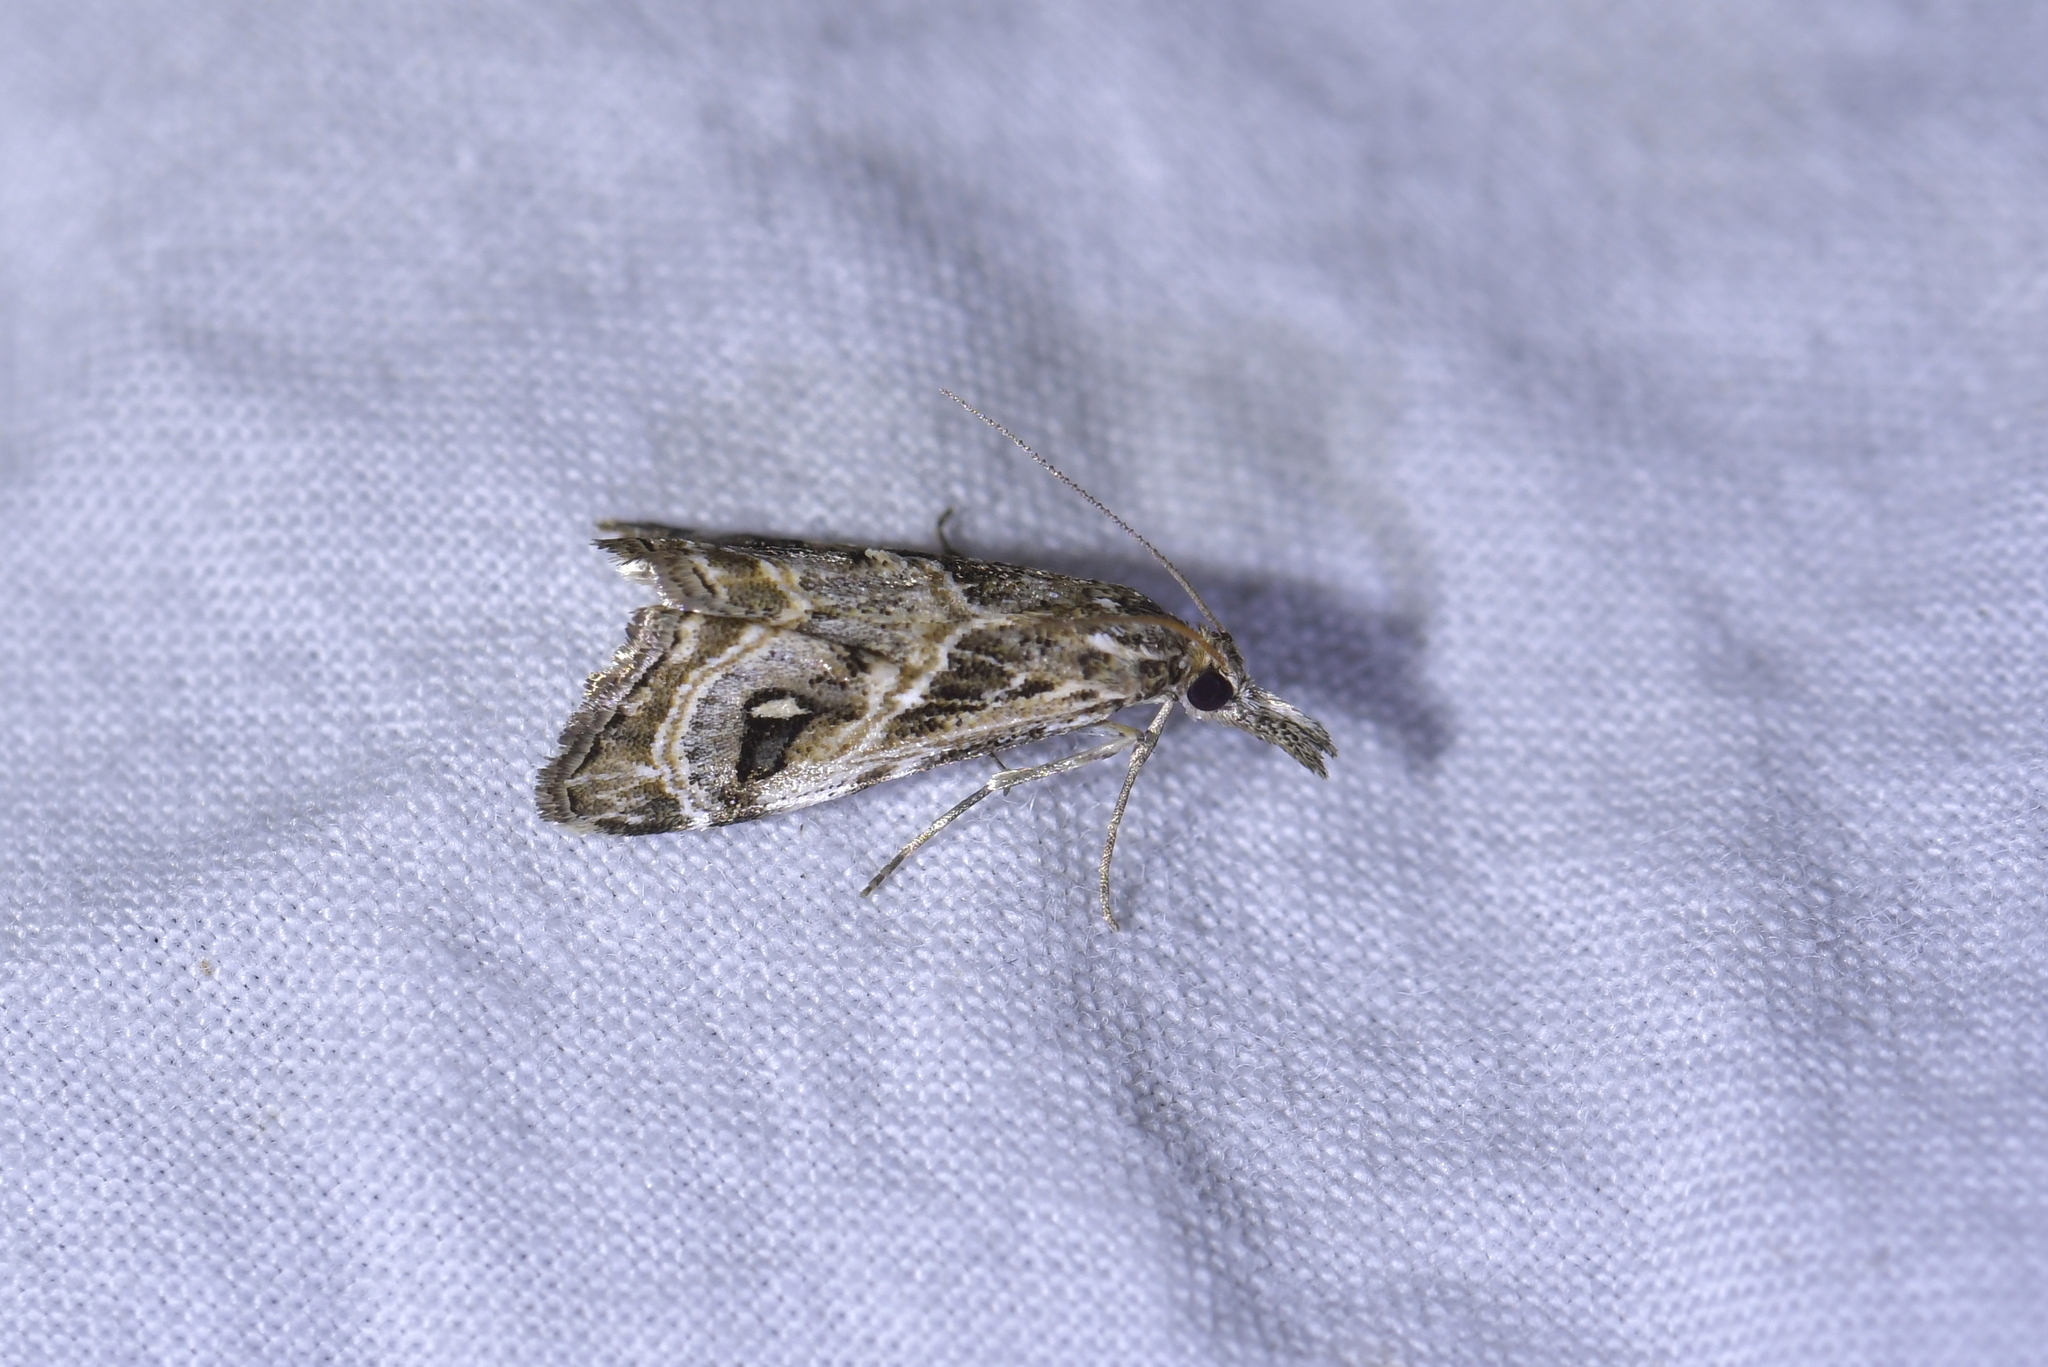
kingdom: Animalia
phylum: Arthropoda
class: Insecta
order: Lepidoptera
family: Crambidae
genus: Gadira
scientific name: Gadira acerella
